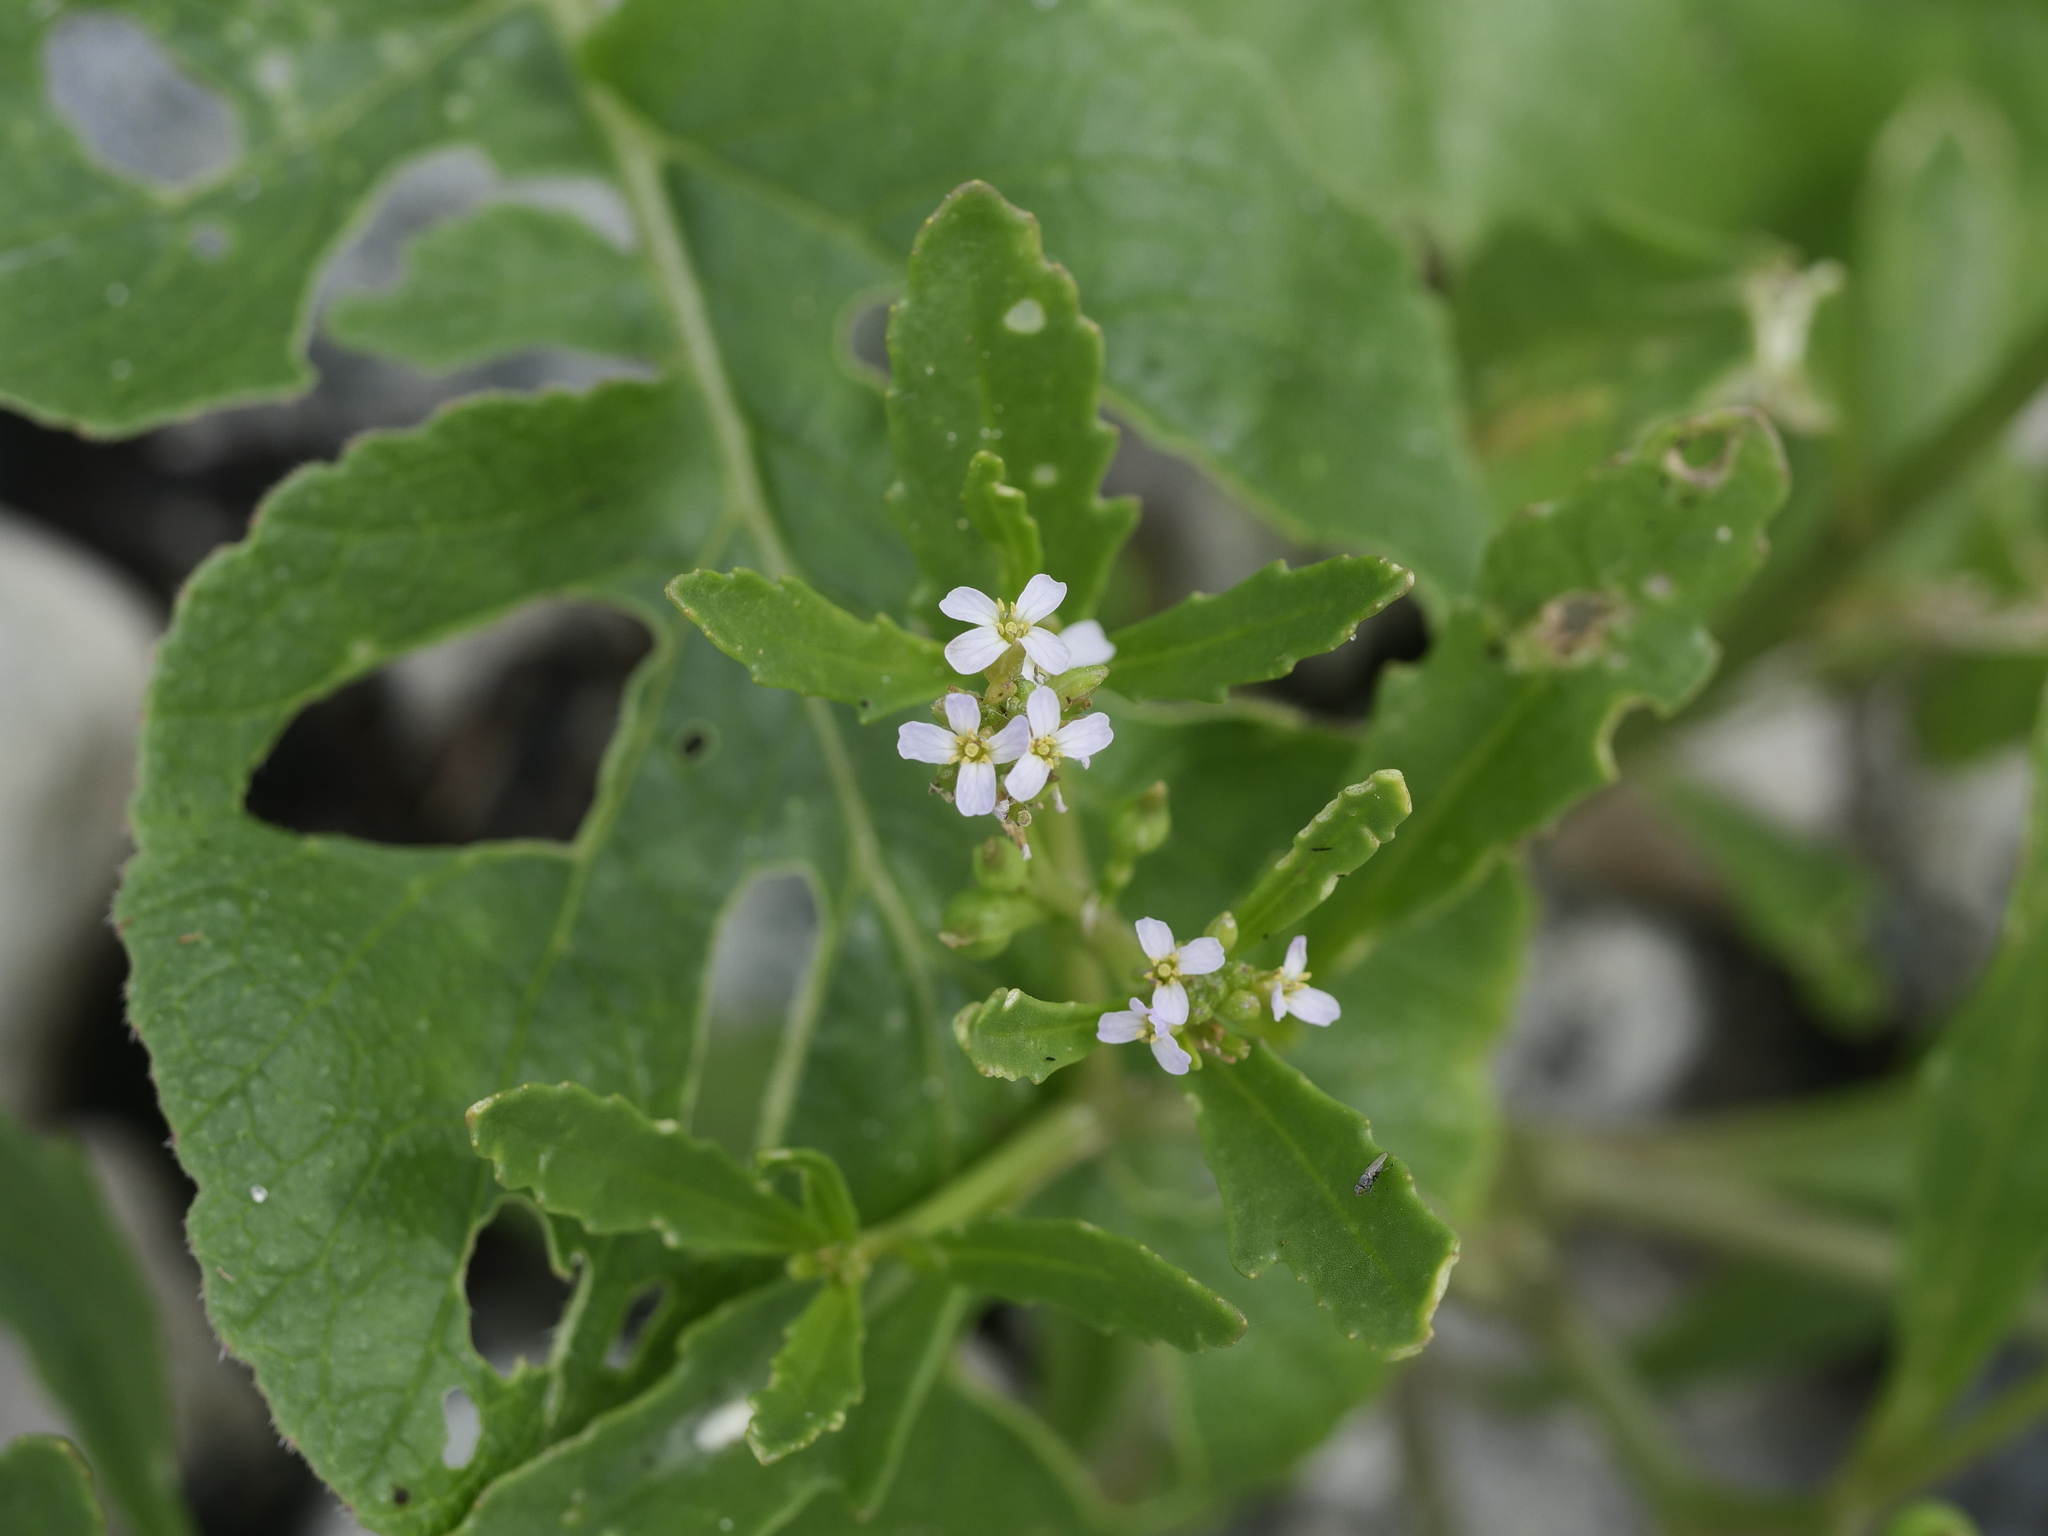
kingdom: Plantae
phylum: Tracheophyta
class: Magnoliopsida
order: Brassicales
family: Brassicaceae
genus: Cakile
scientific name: Cakile edentula
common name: American sea rocket
